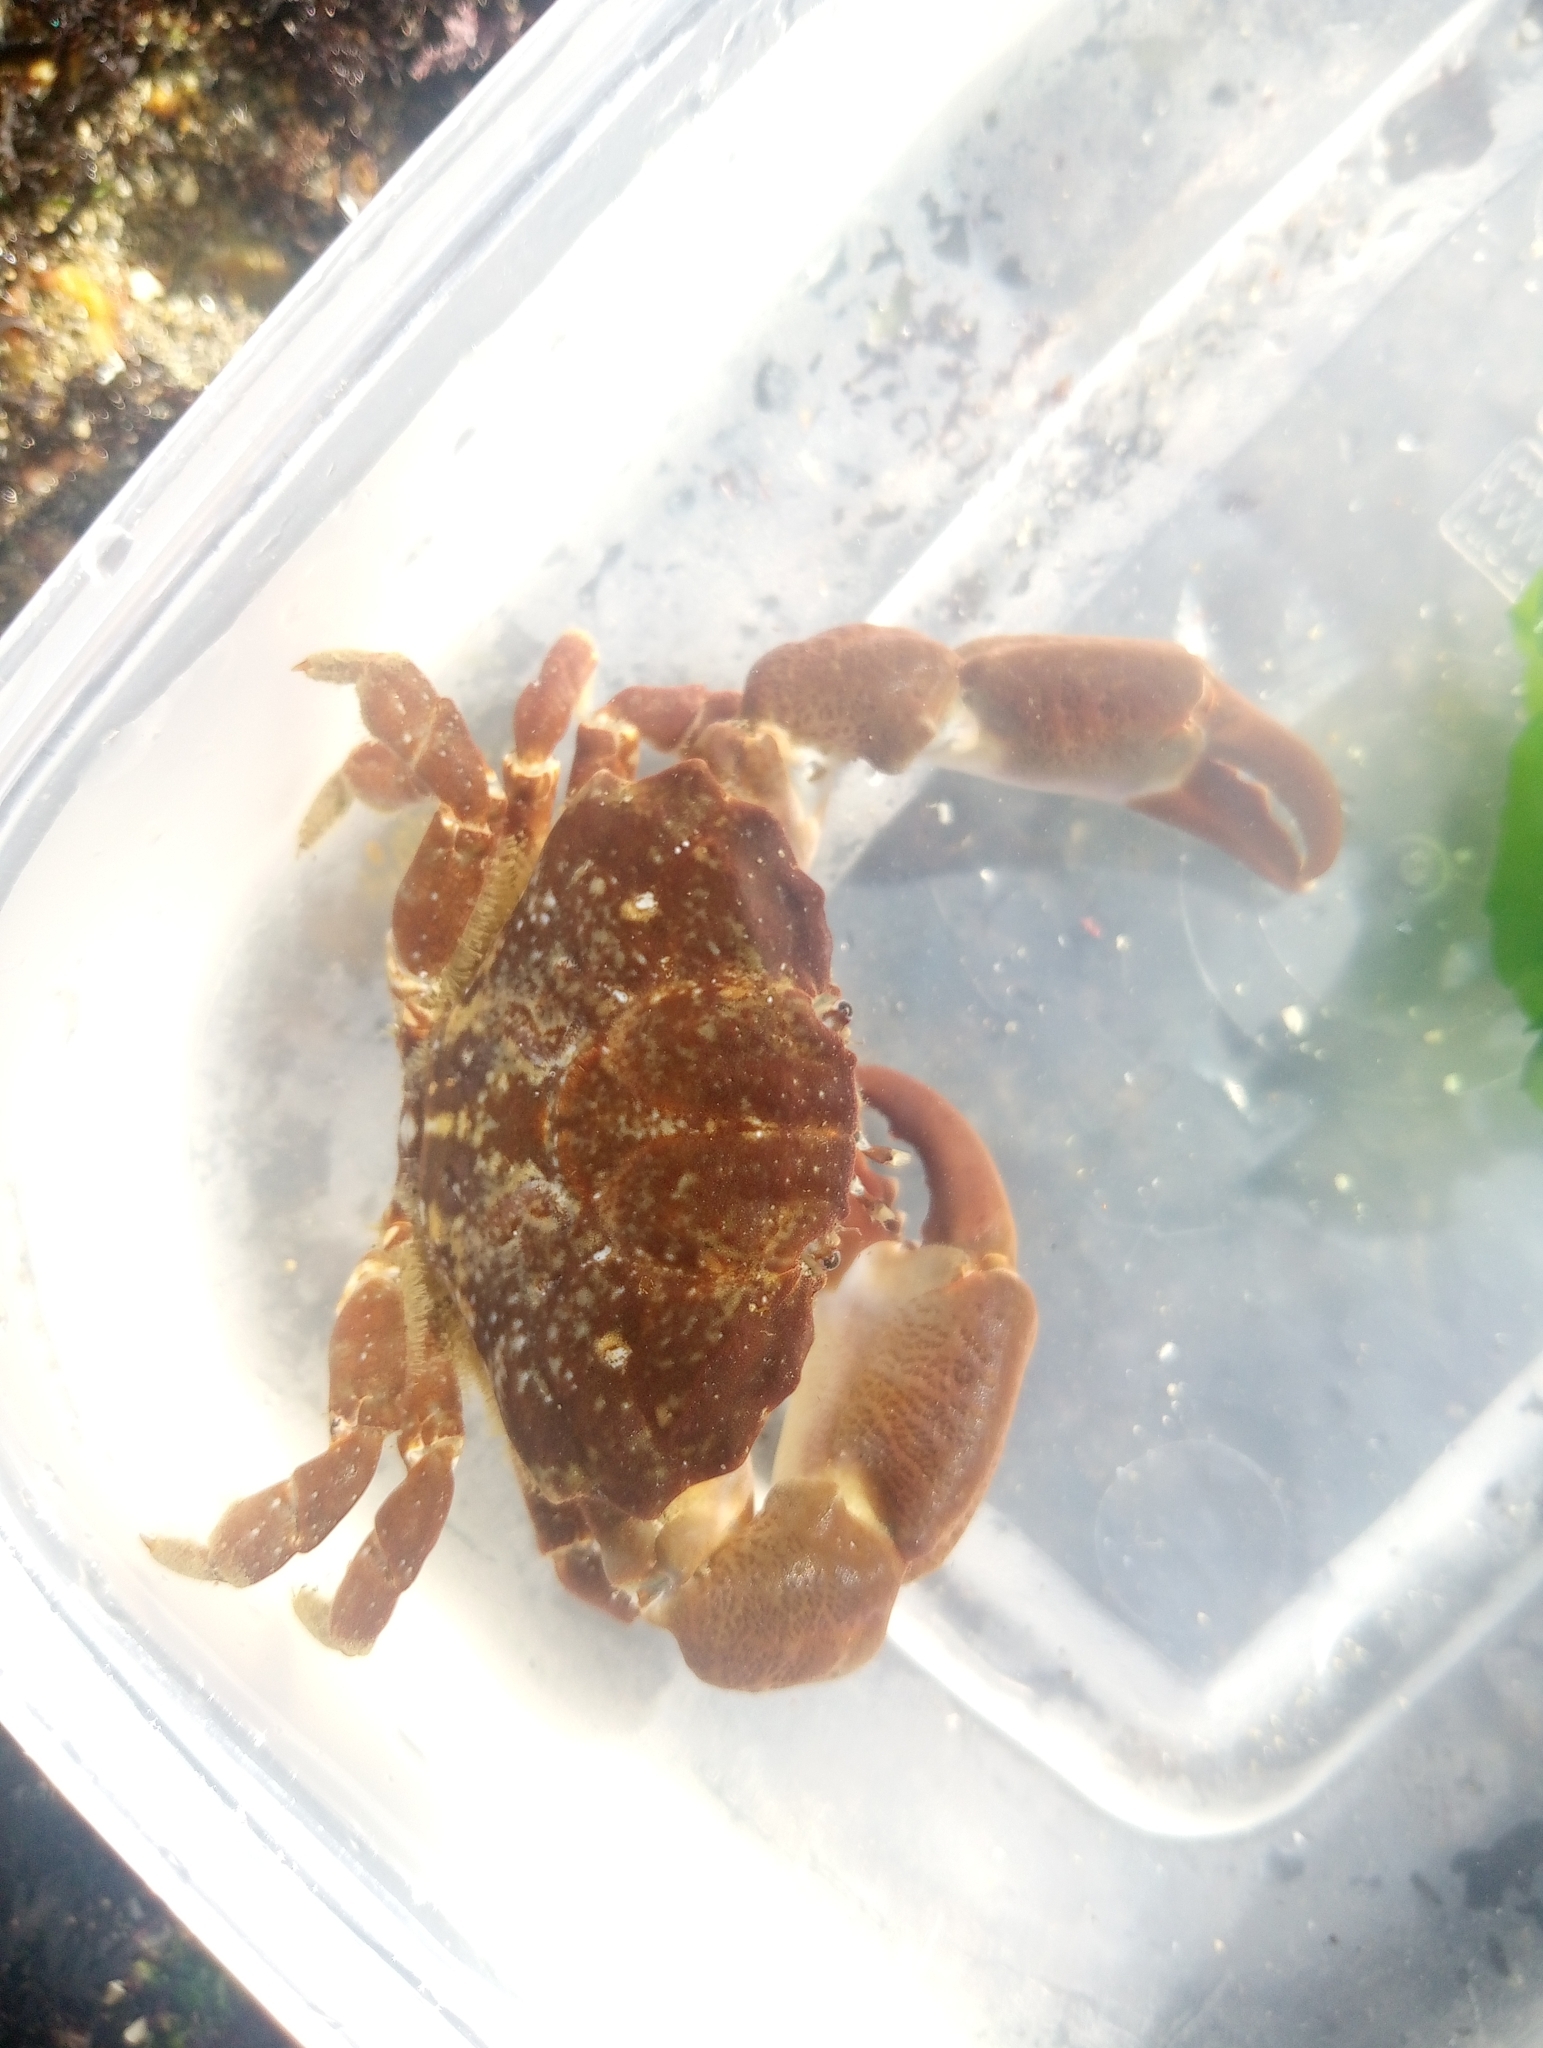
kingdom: Animalia
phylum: Arthropoda
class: Malacostraca
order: Decapoda
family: Xanthidae
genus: Xantho
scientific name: Xantho hydrophilus
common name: Montagu's crab
